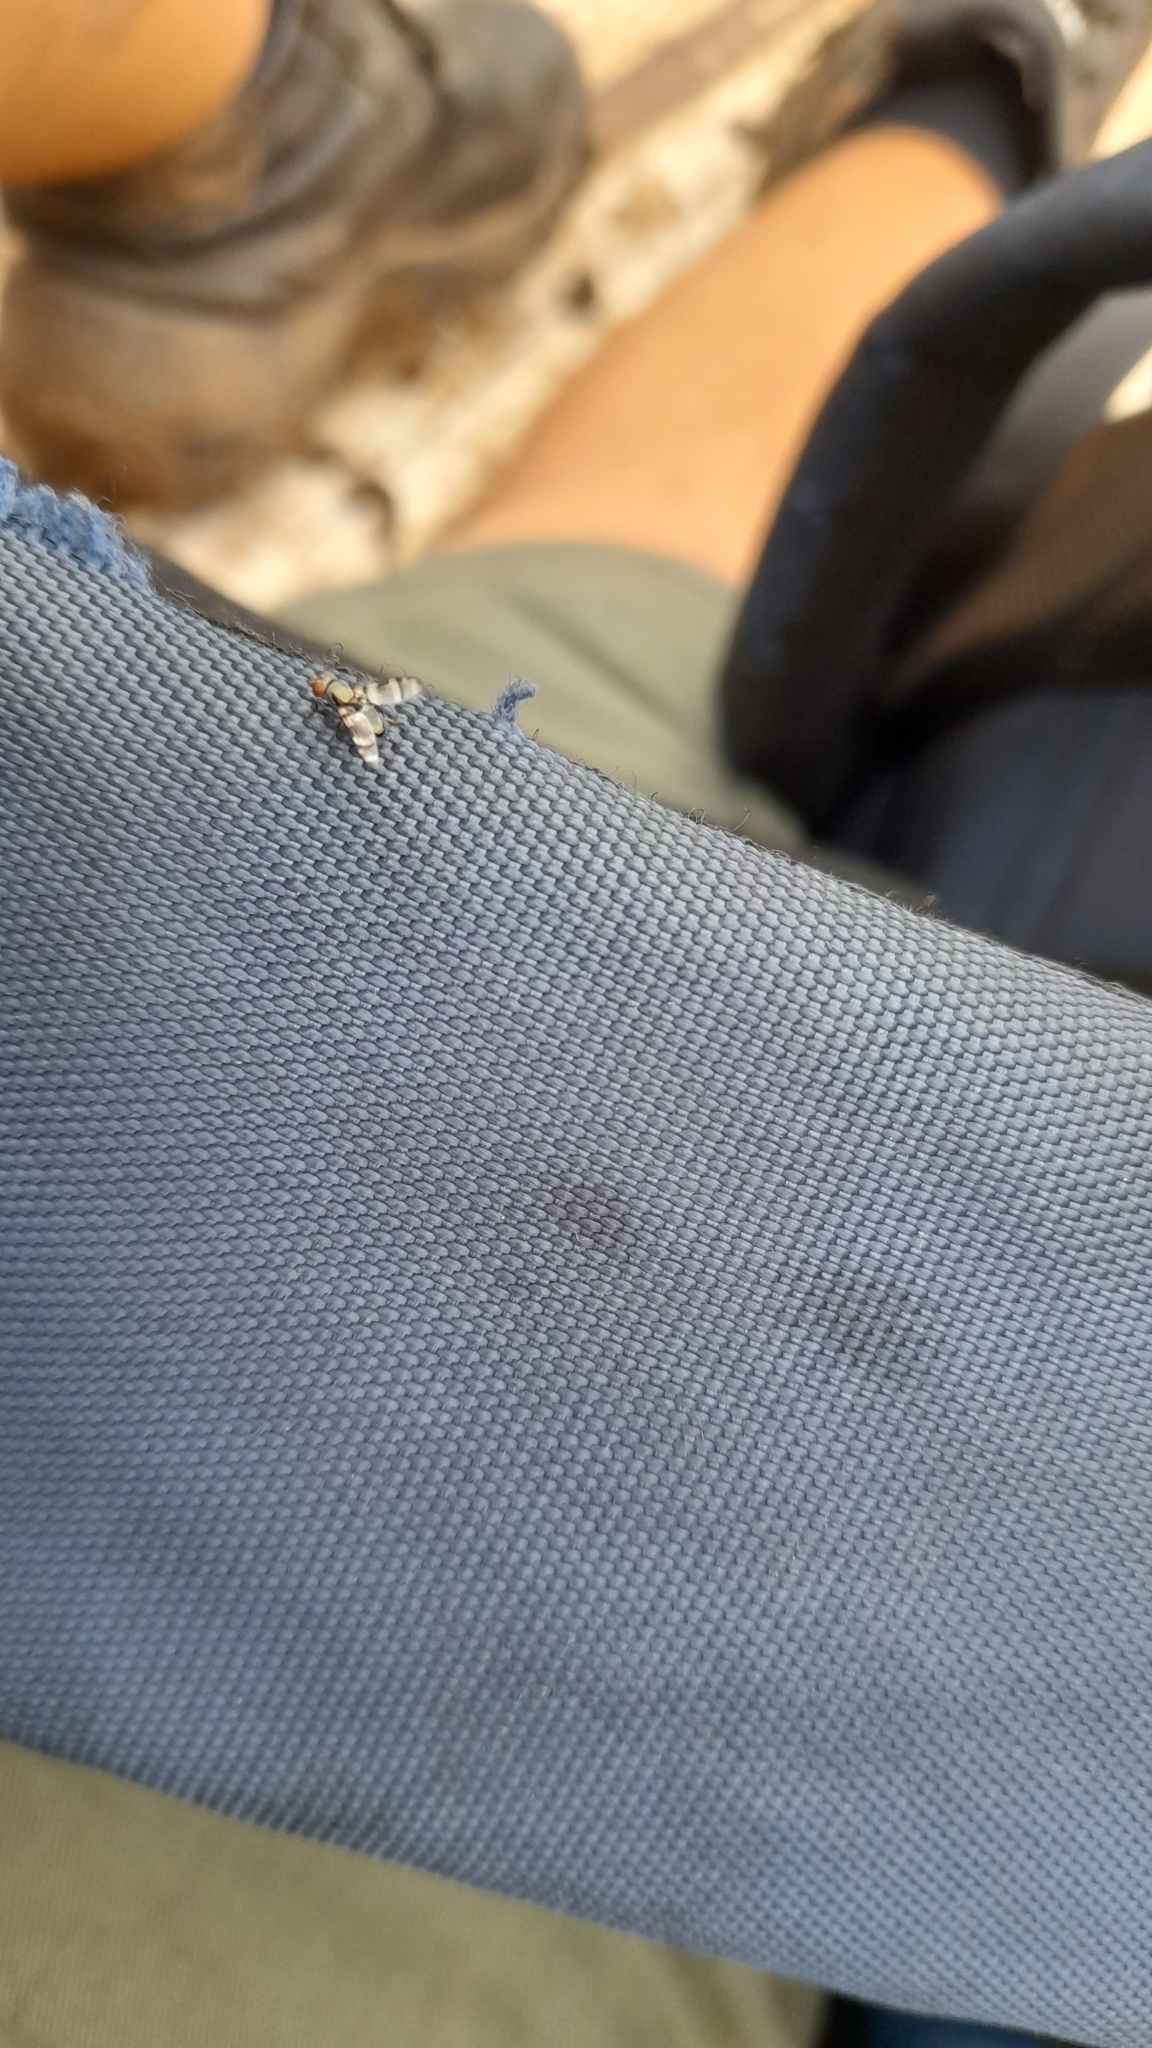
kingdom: Animalia
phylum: Arthropoda
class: Insecta
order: Diptera
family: Ulidiidae
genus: Euxesta
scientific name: Euxesta eluta
